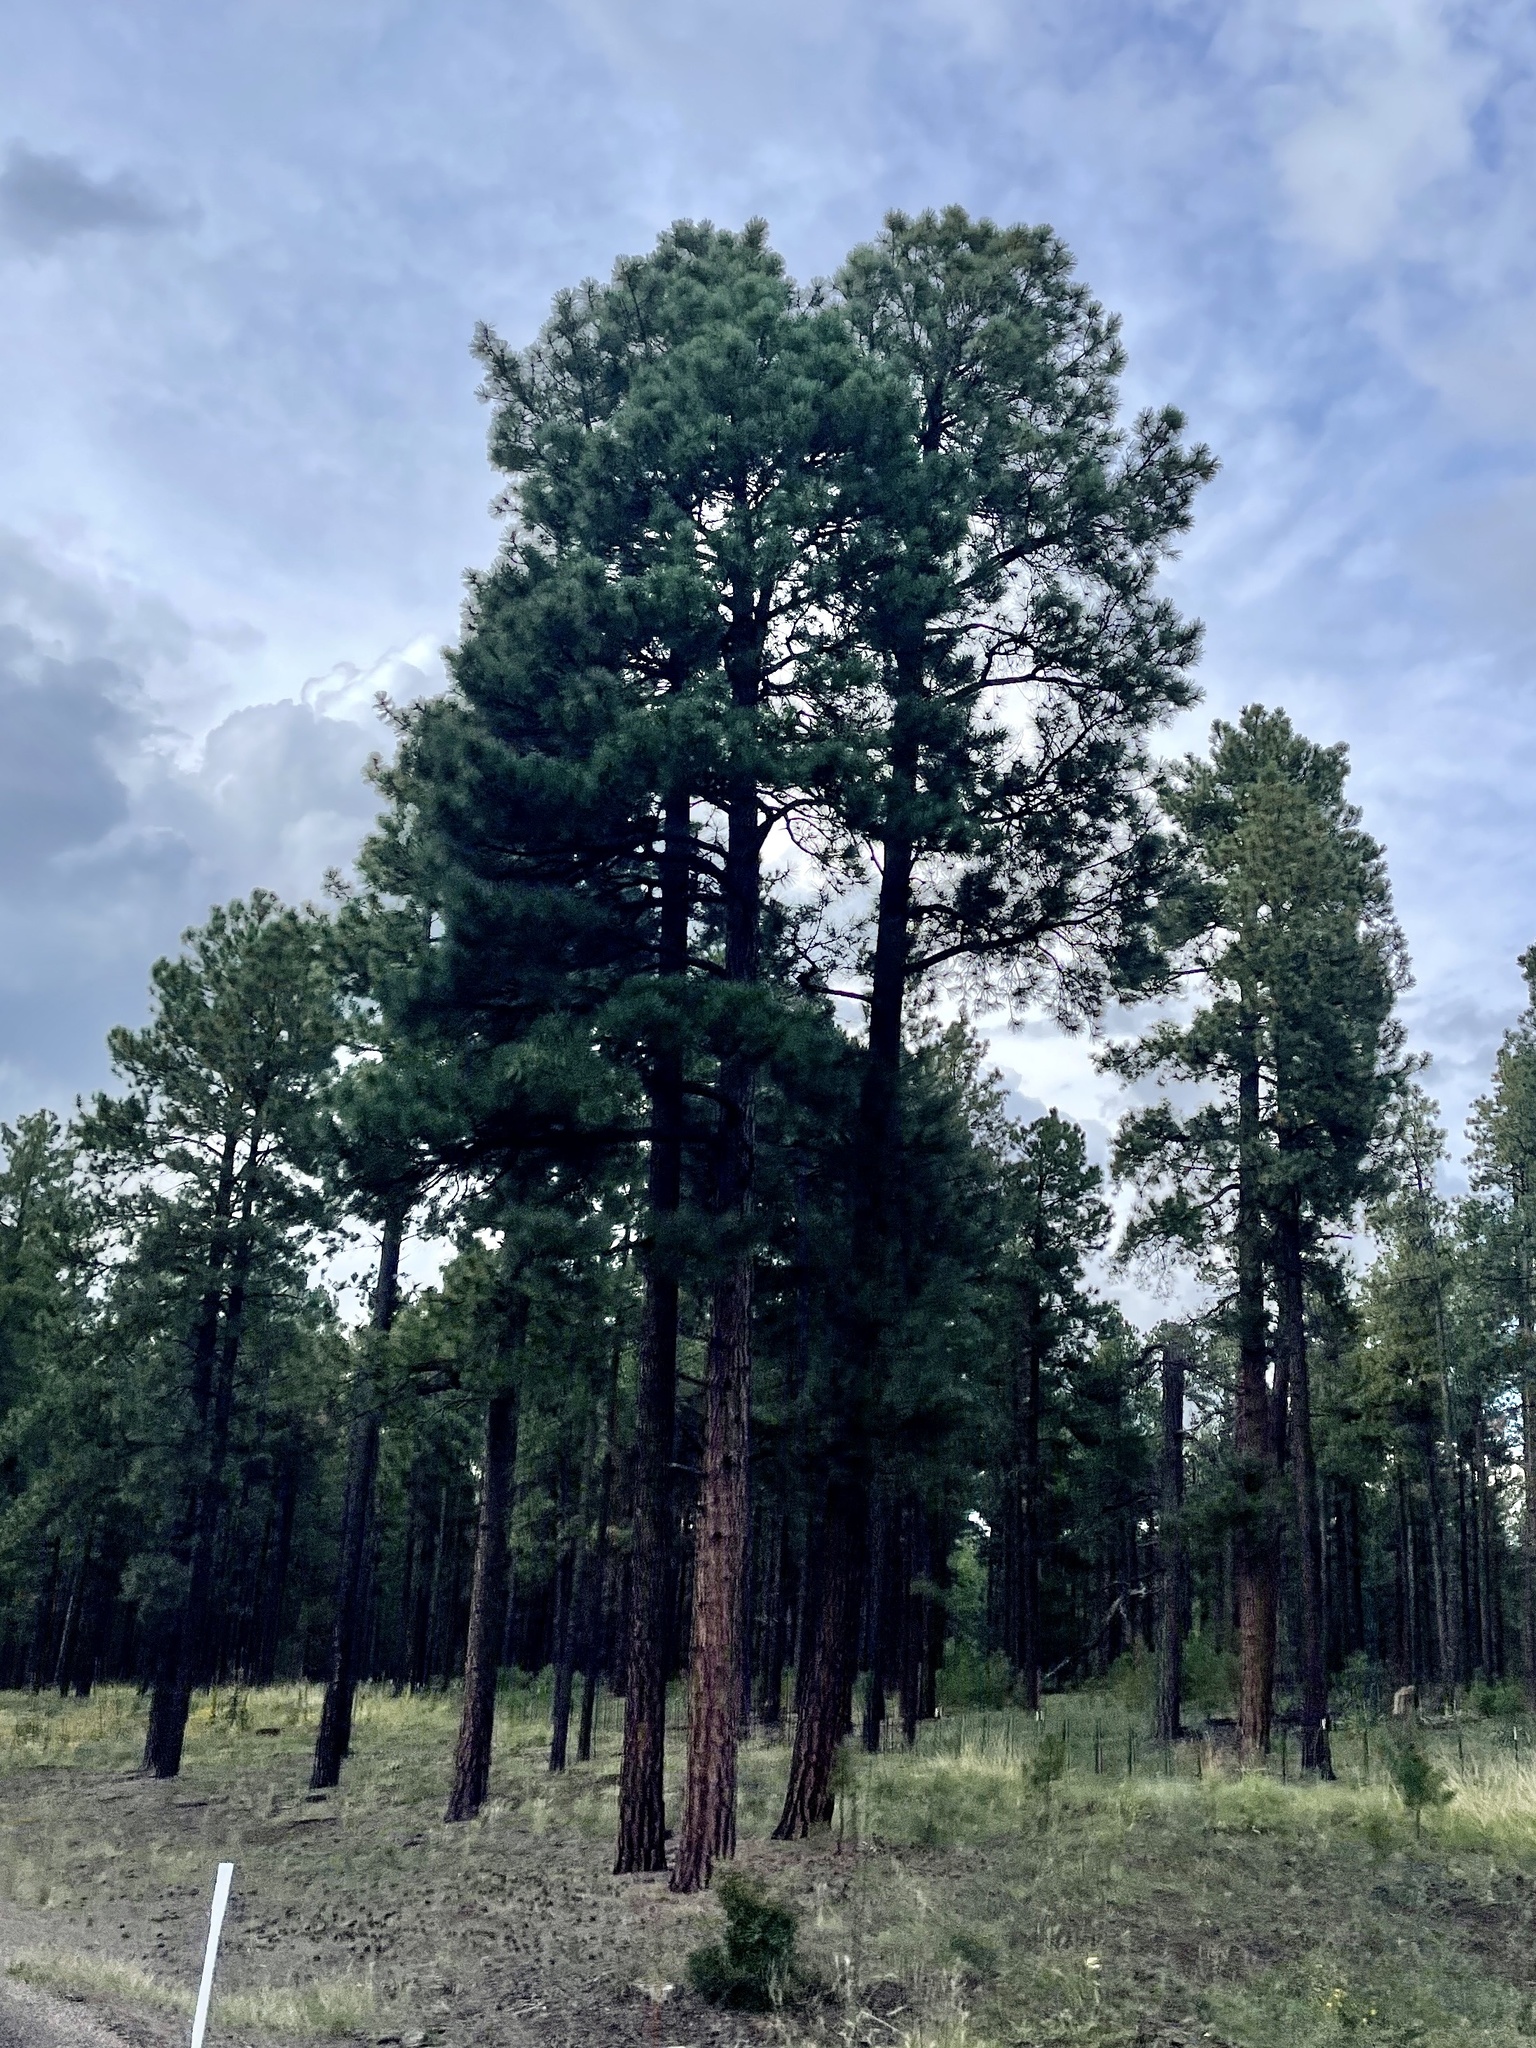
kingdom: Plantae
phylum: Tracheophyta
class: Pinopsida
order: Pinales
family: Pinaceae
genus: Pinus
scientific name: Pinus ponderosa
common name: Western yellow-pine
